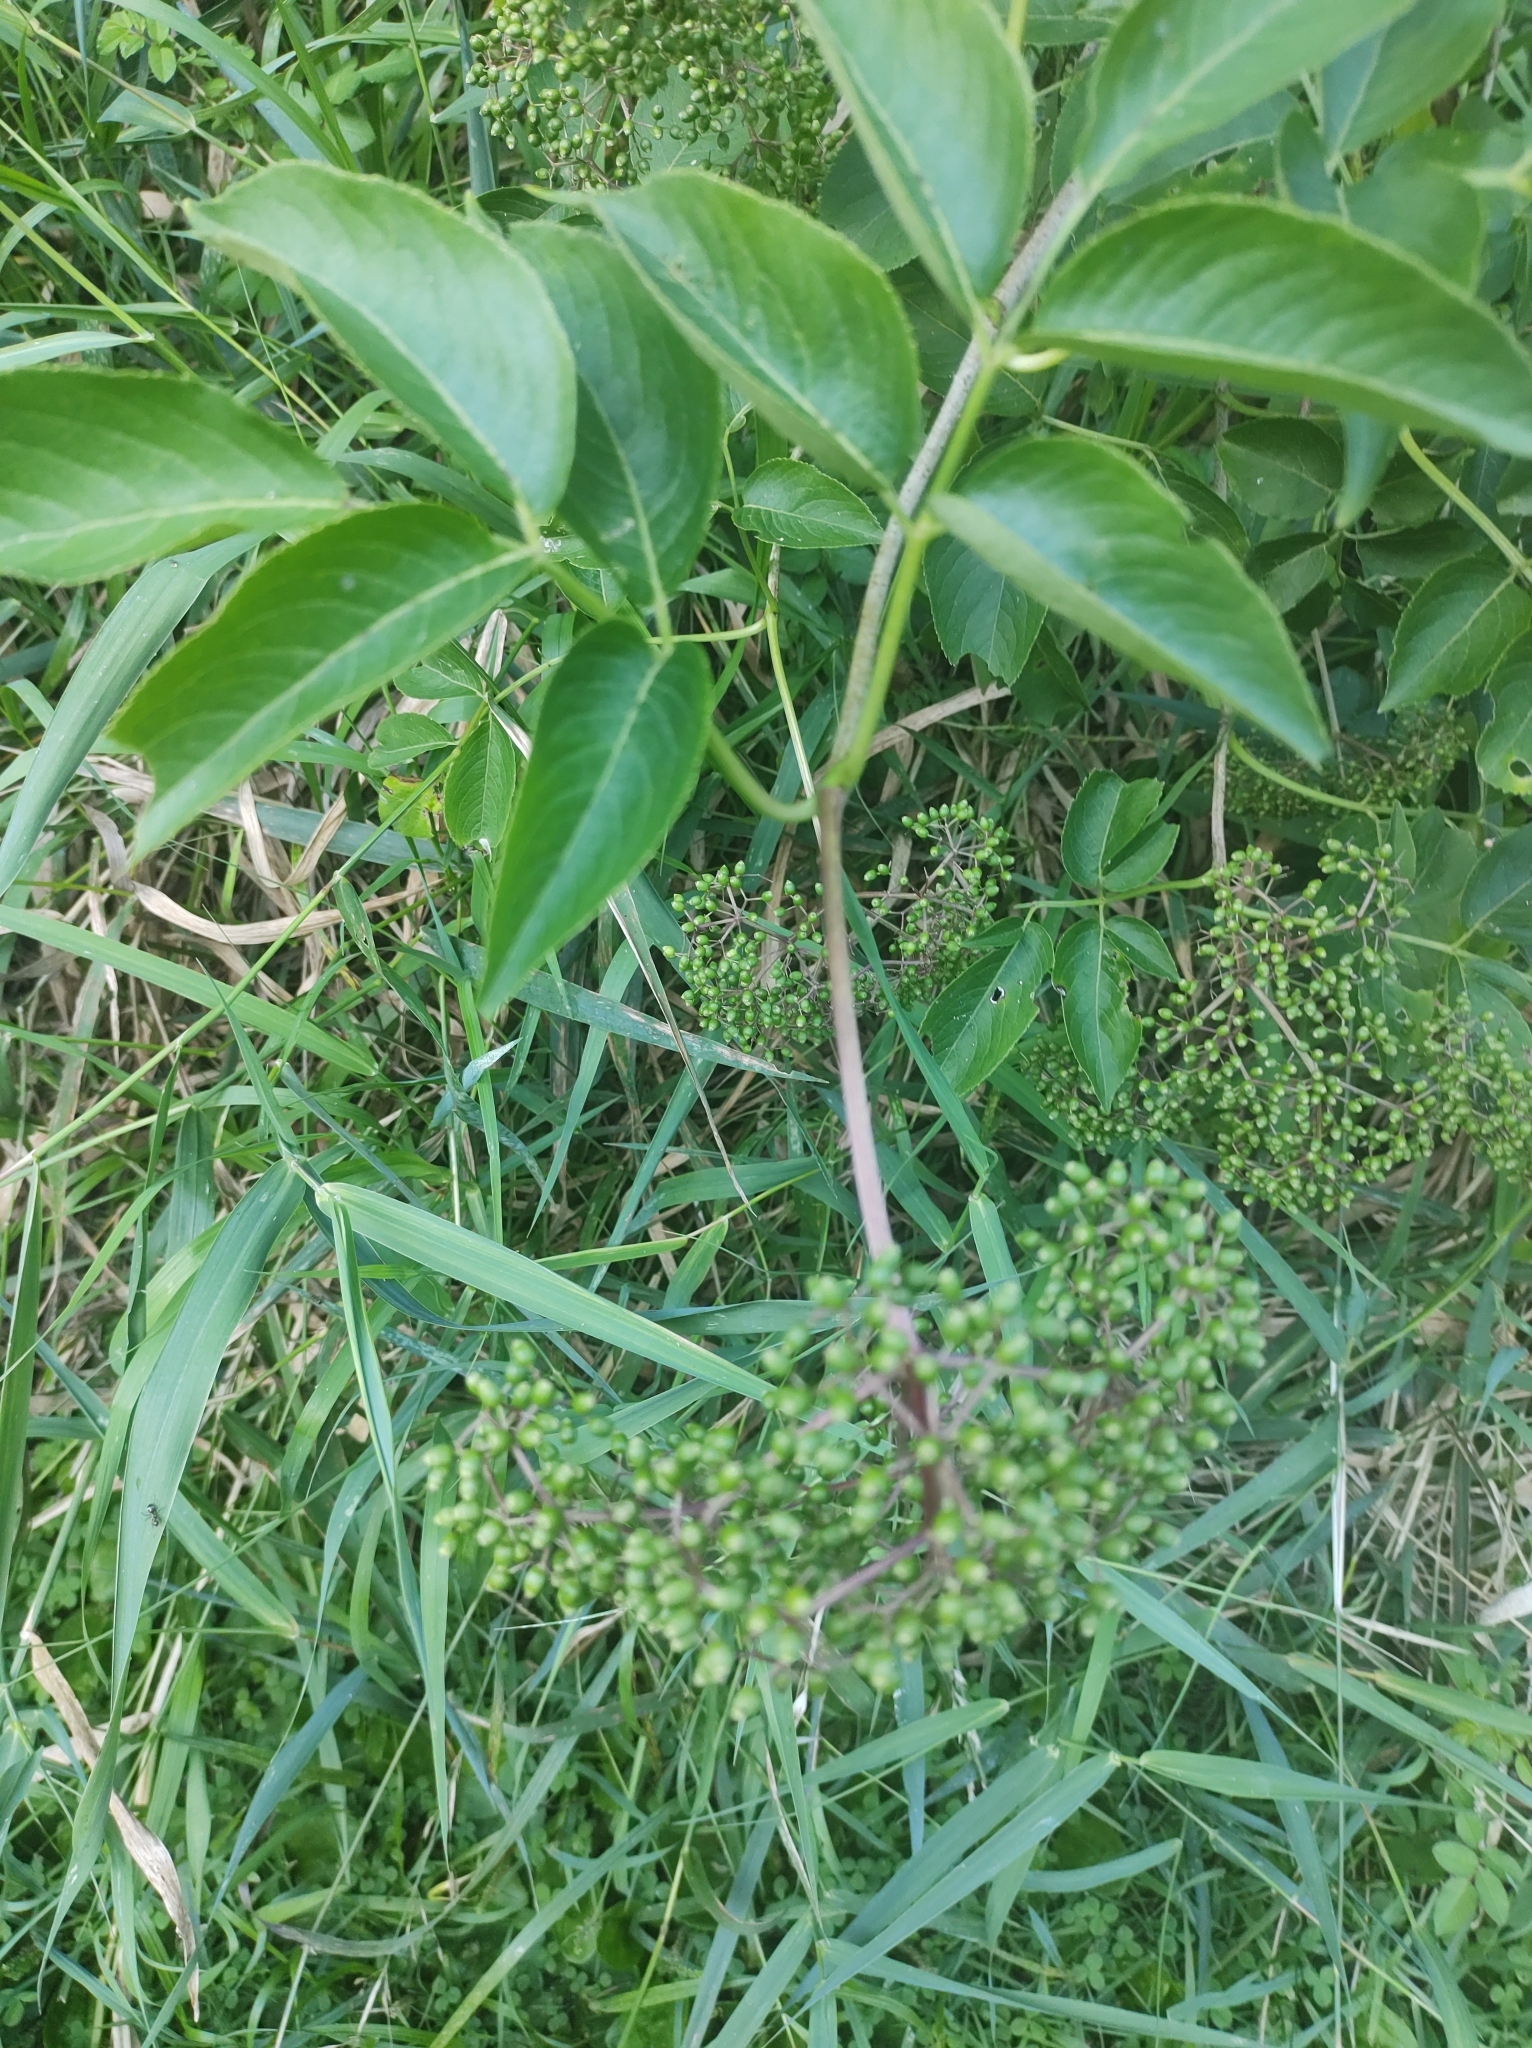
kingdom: Plantae
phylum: Tracheophyta
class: Magnoliopsida
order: Dipsacales
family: Viburnaceae
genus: Sambucus
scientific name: Sambucus canadensis
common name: American elder
